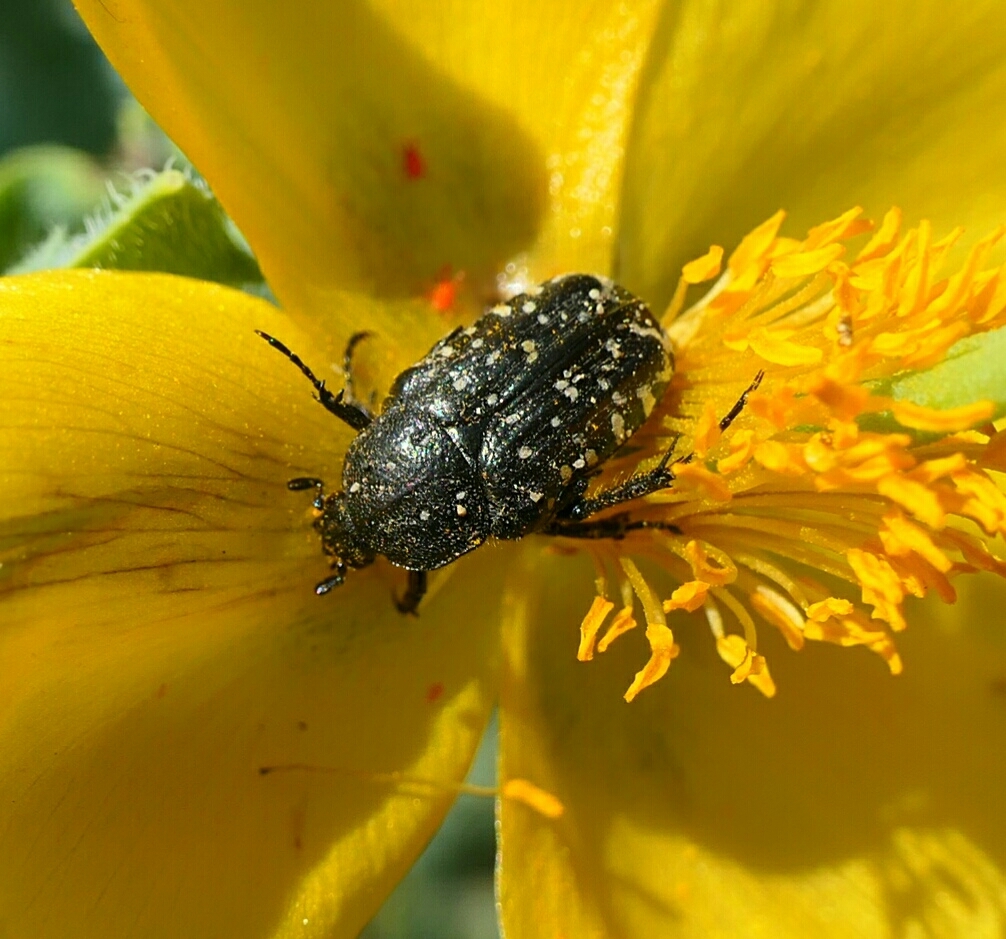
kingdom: Animalia
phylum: Arthropoda
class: Insecta
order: Coleoptera
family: Scarabaeidae
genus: Oxythyrea
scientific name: Oxythyrea funesta
